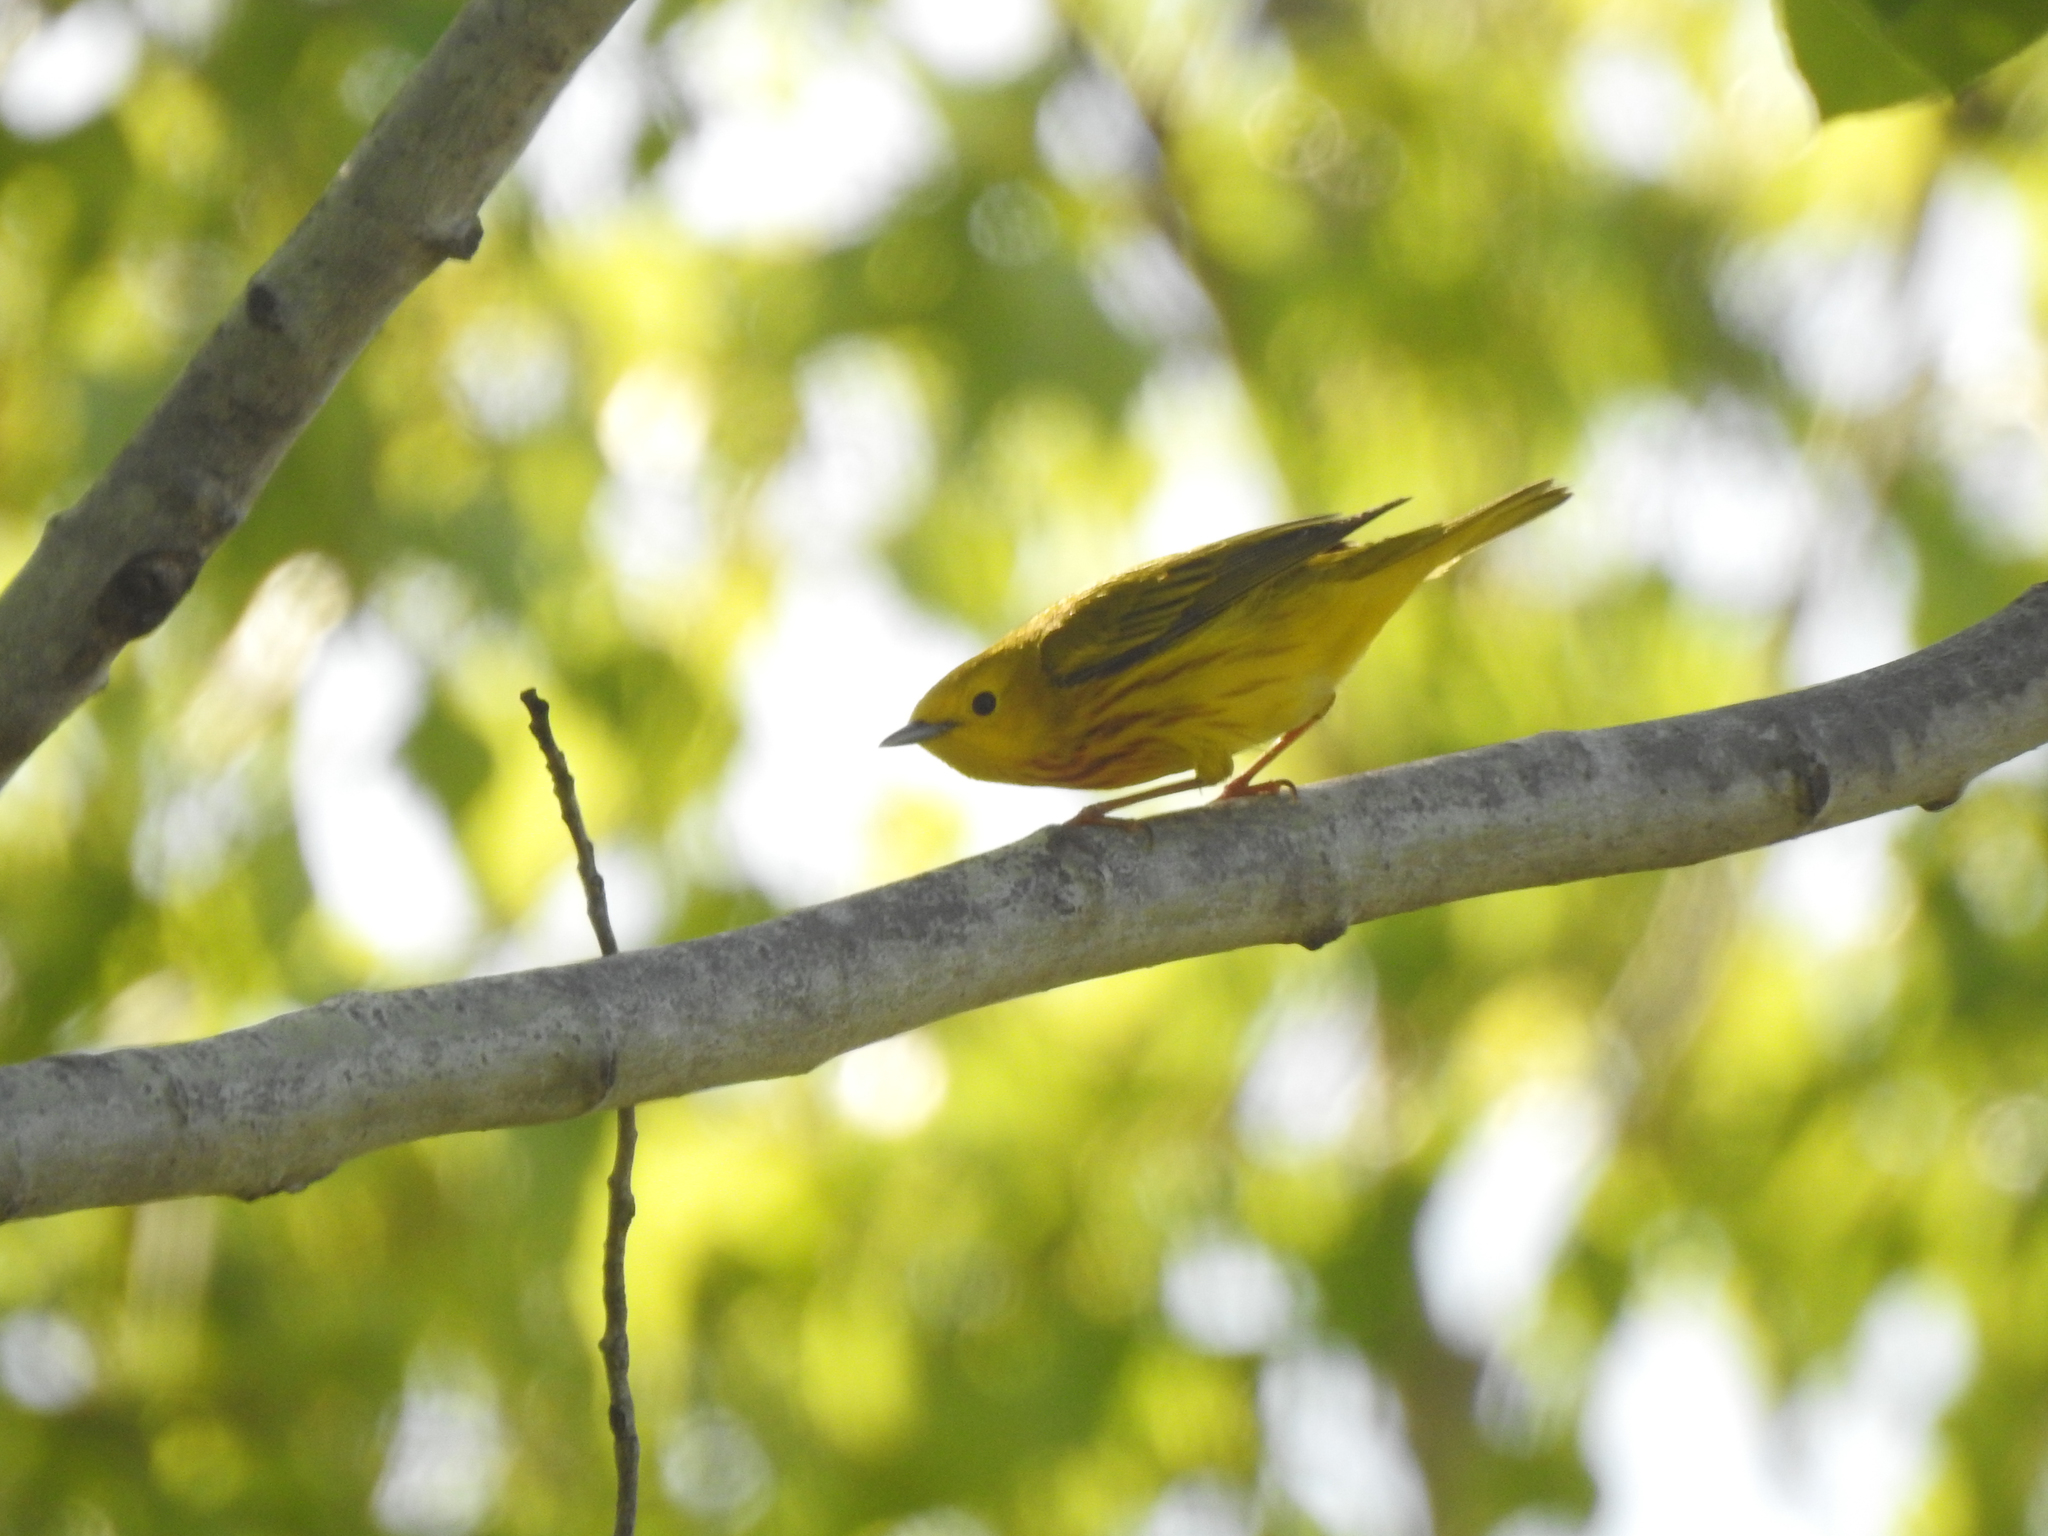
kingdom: Animalia
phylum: Chordata
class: Aves
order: Passeriformes
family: Parulidae
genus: Setophaga
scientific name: Setophaga petechia
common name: Yellow warbler
